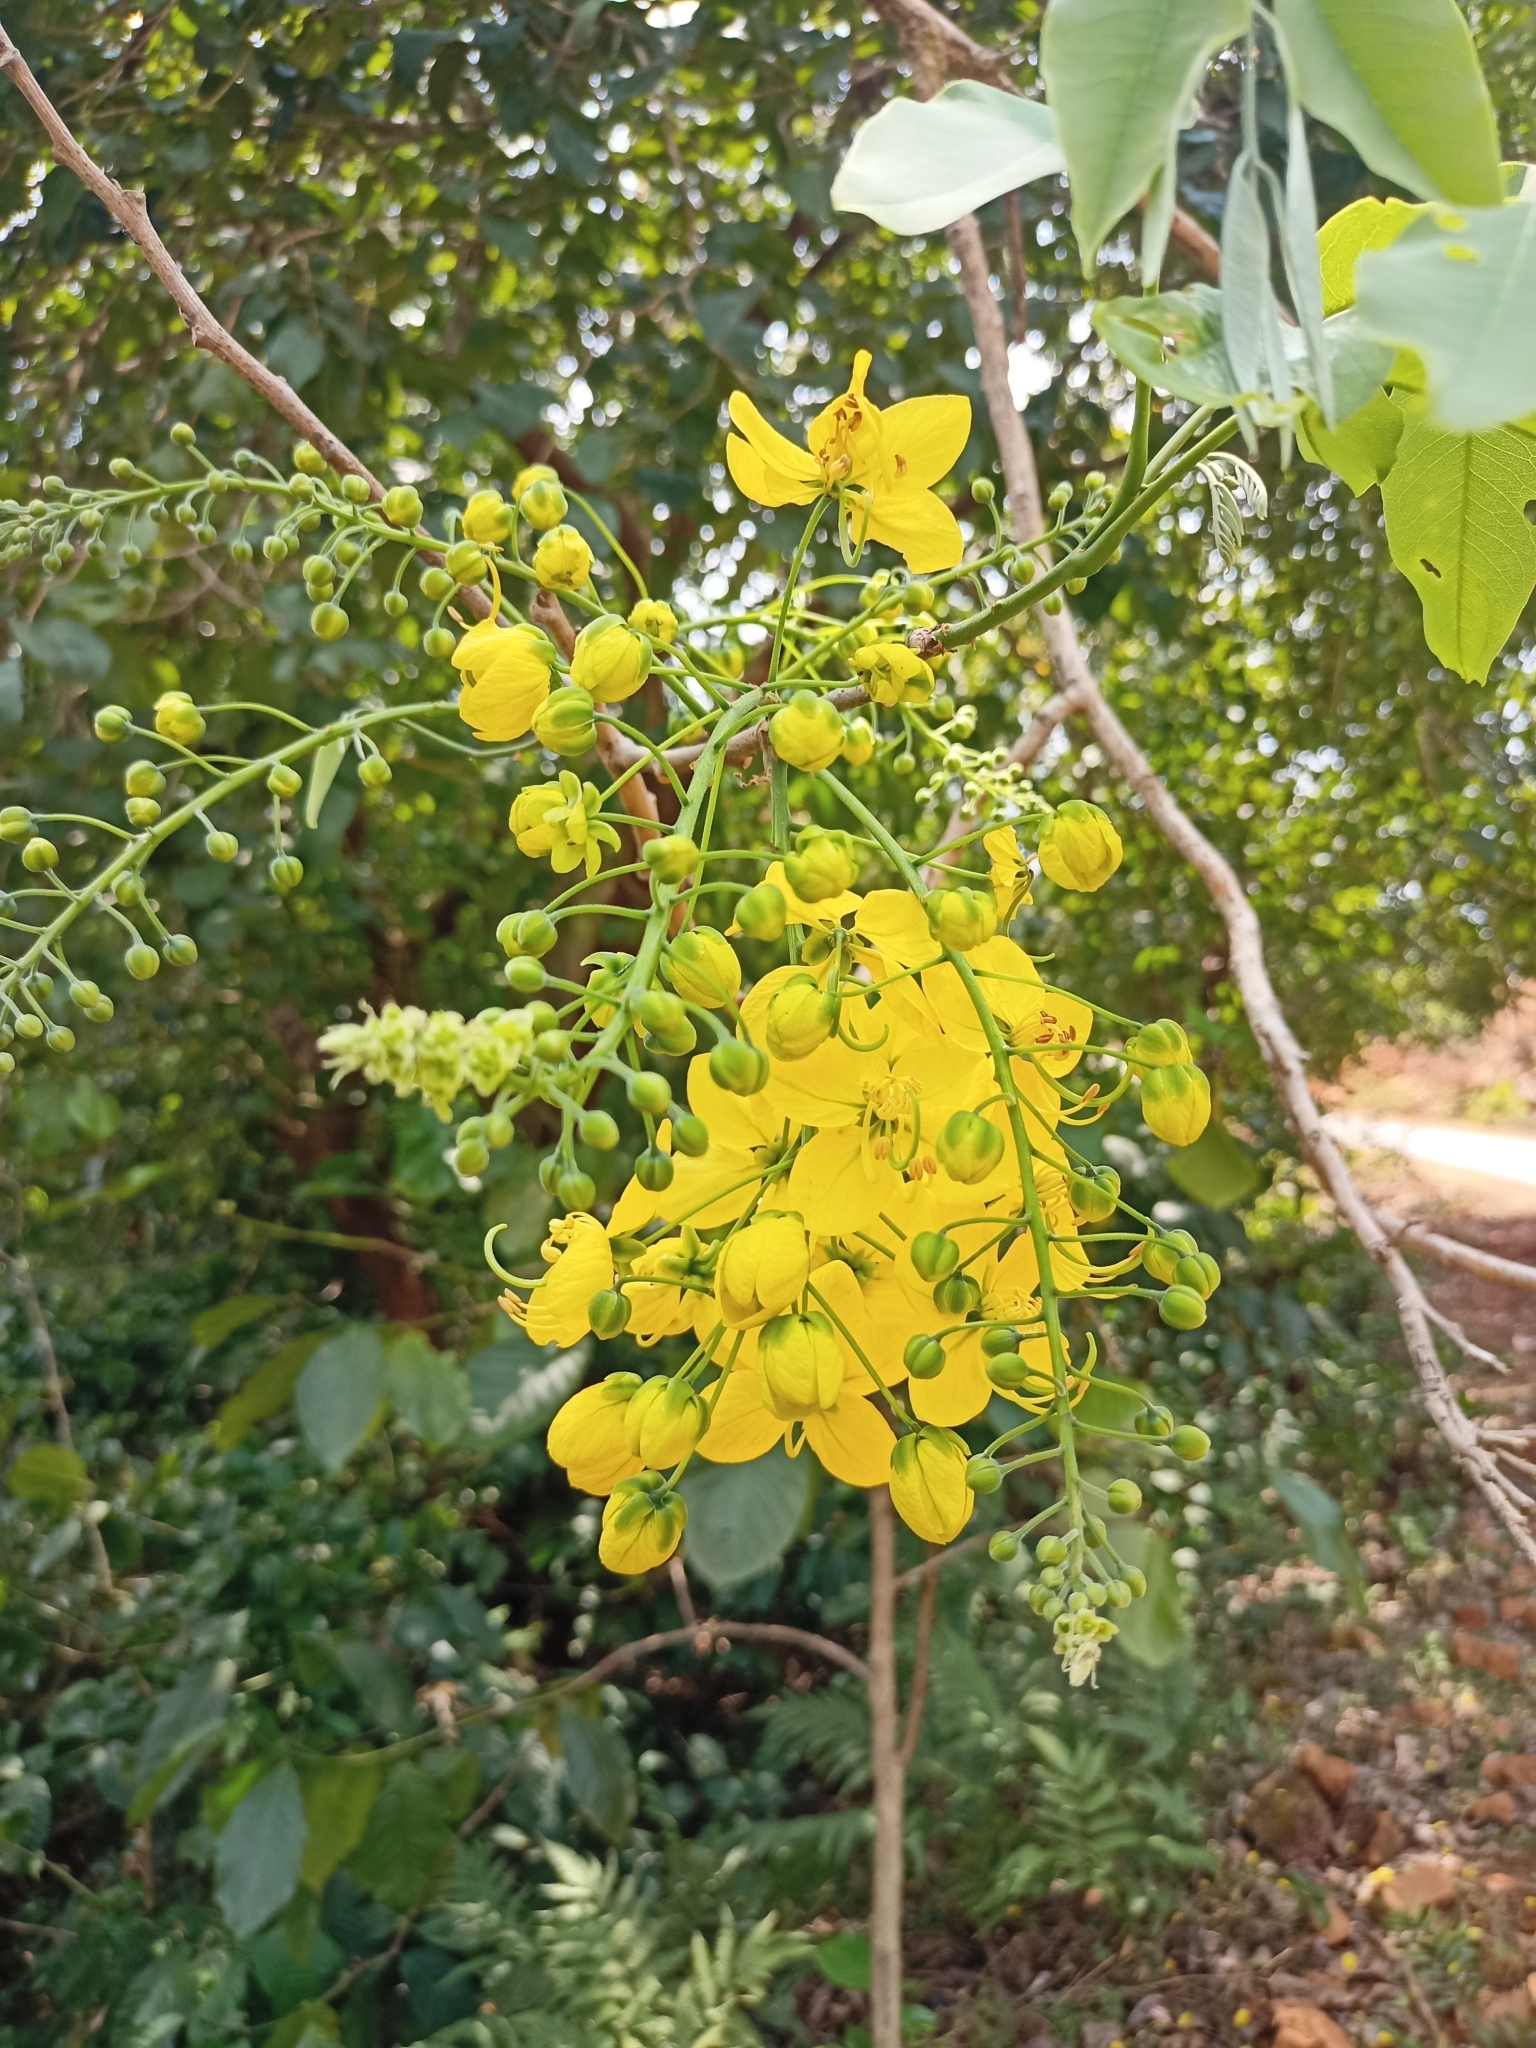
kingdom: Plantae
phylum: Tracheophyta
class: Magnoliopsida
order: Fabales
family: Fabaceae
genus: Cassia
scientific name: Cassia fistula
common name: Golden shower
